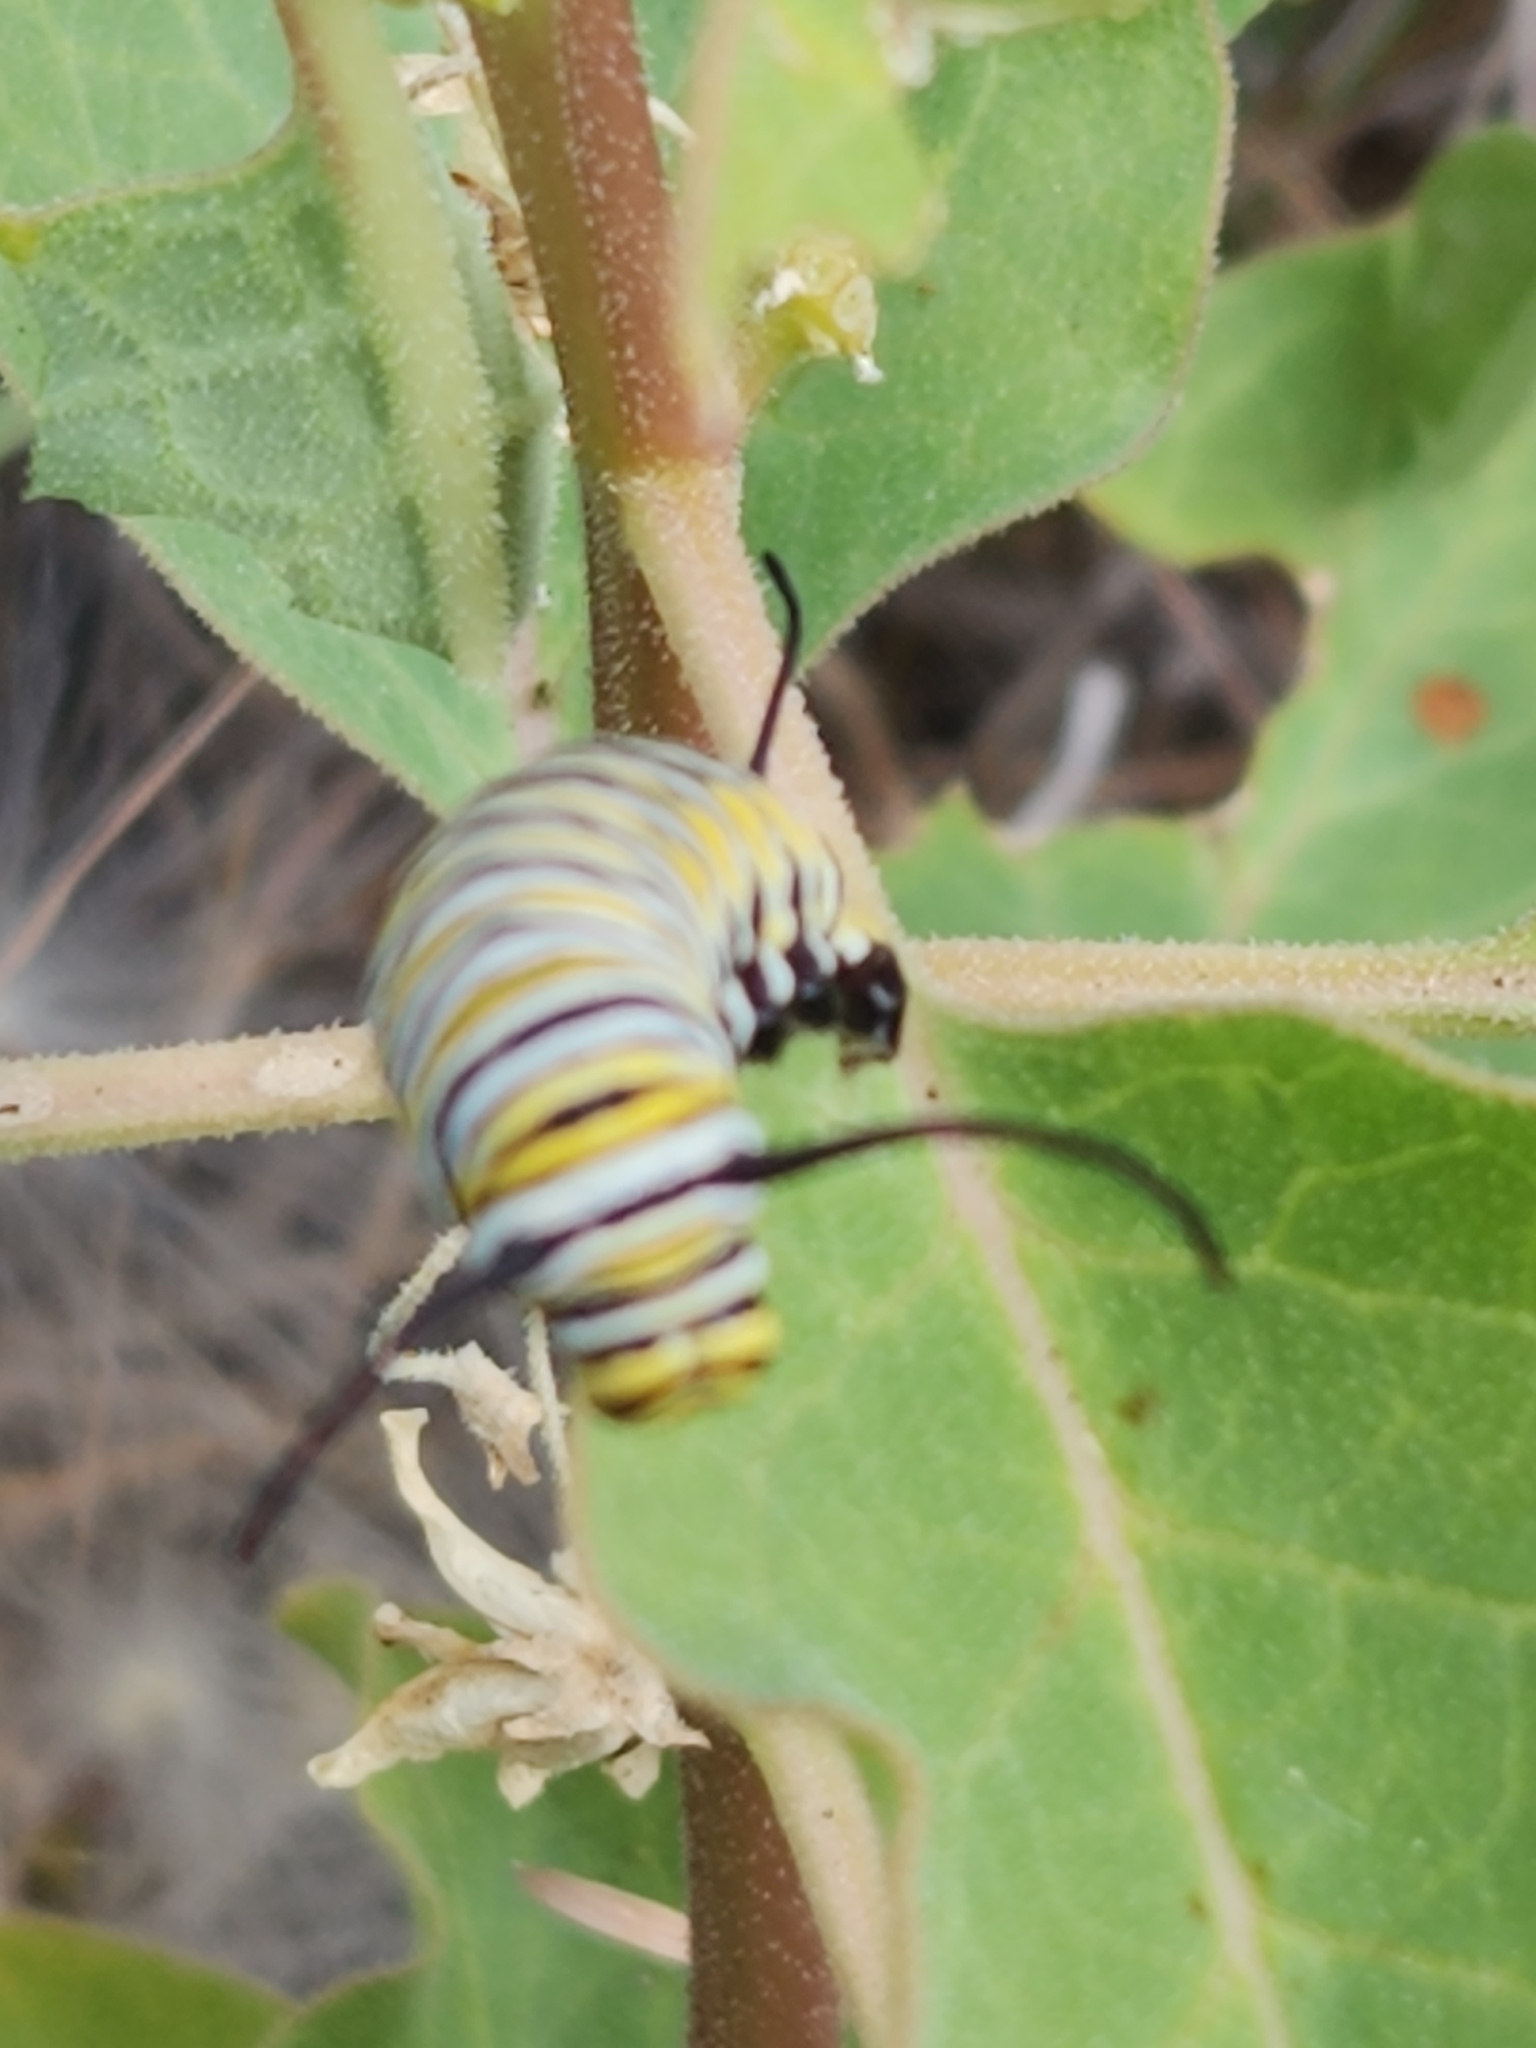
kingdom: Animalia
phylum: Arthropoda
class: Insecta
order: Lepidoptera
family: Nymphalidae
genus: Danaus
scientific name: Danaus plexippus
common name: Monarch
